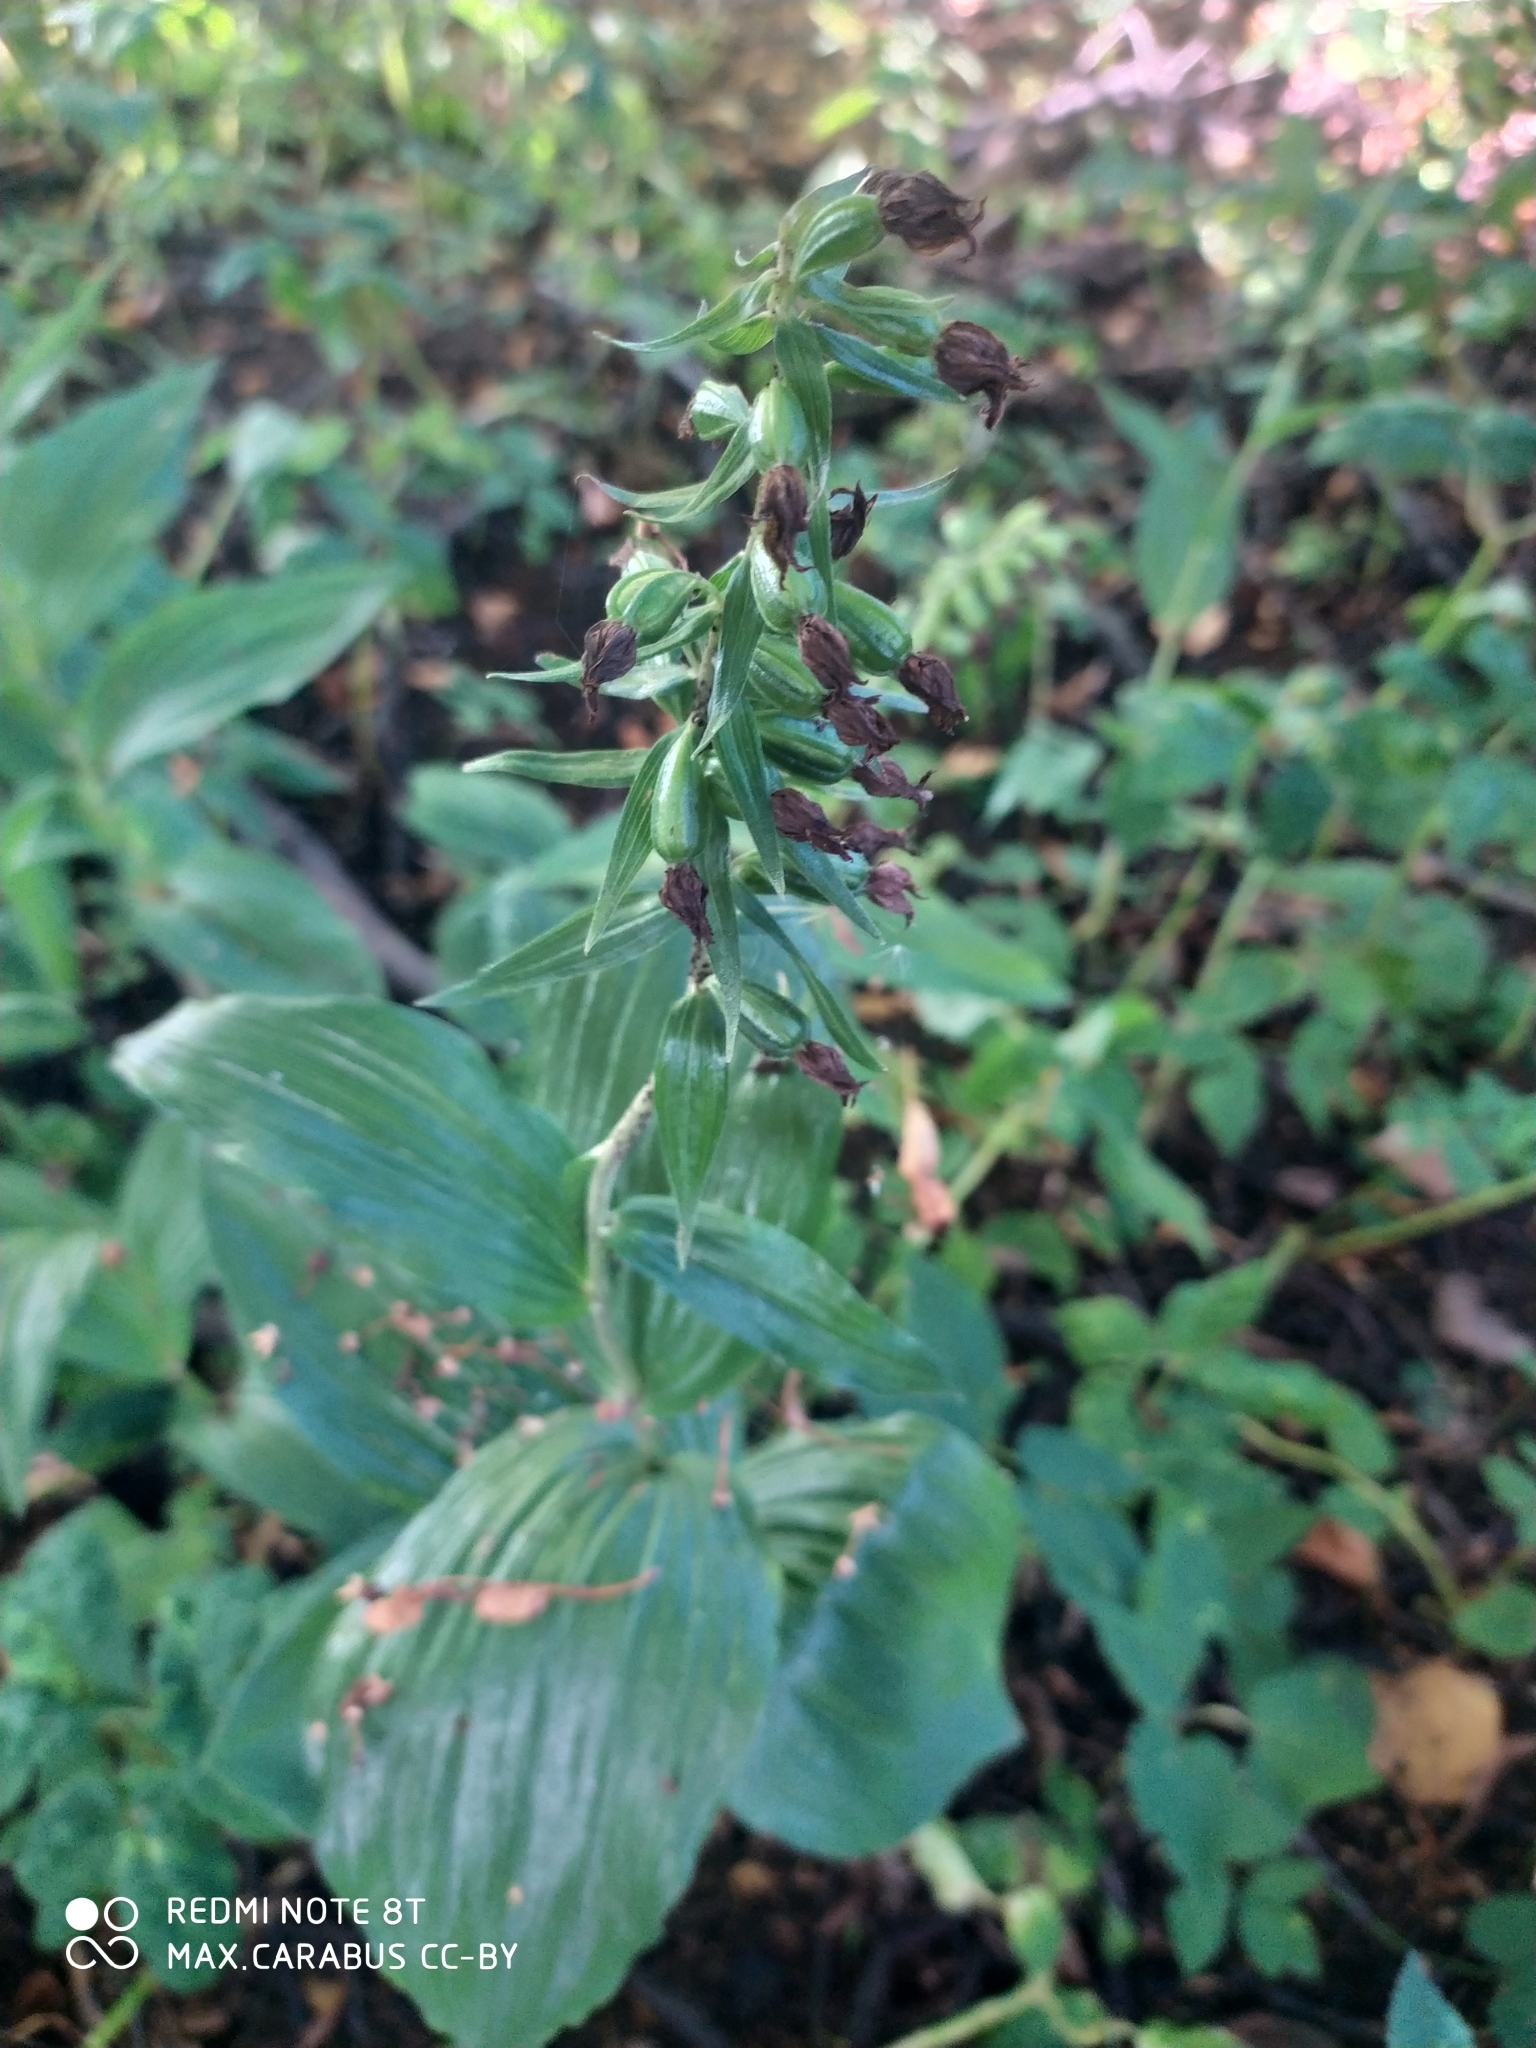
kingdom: Plantae
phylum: Tracheophyta
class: Liliopsida
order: Asparagales
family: Orchidaceae
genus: Epipactis
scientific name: Epipactis helleborine
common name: Broad-leaved helleborine
